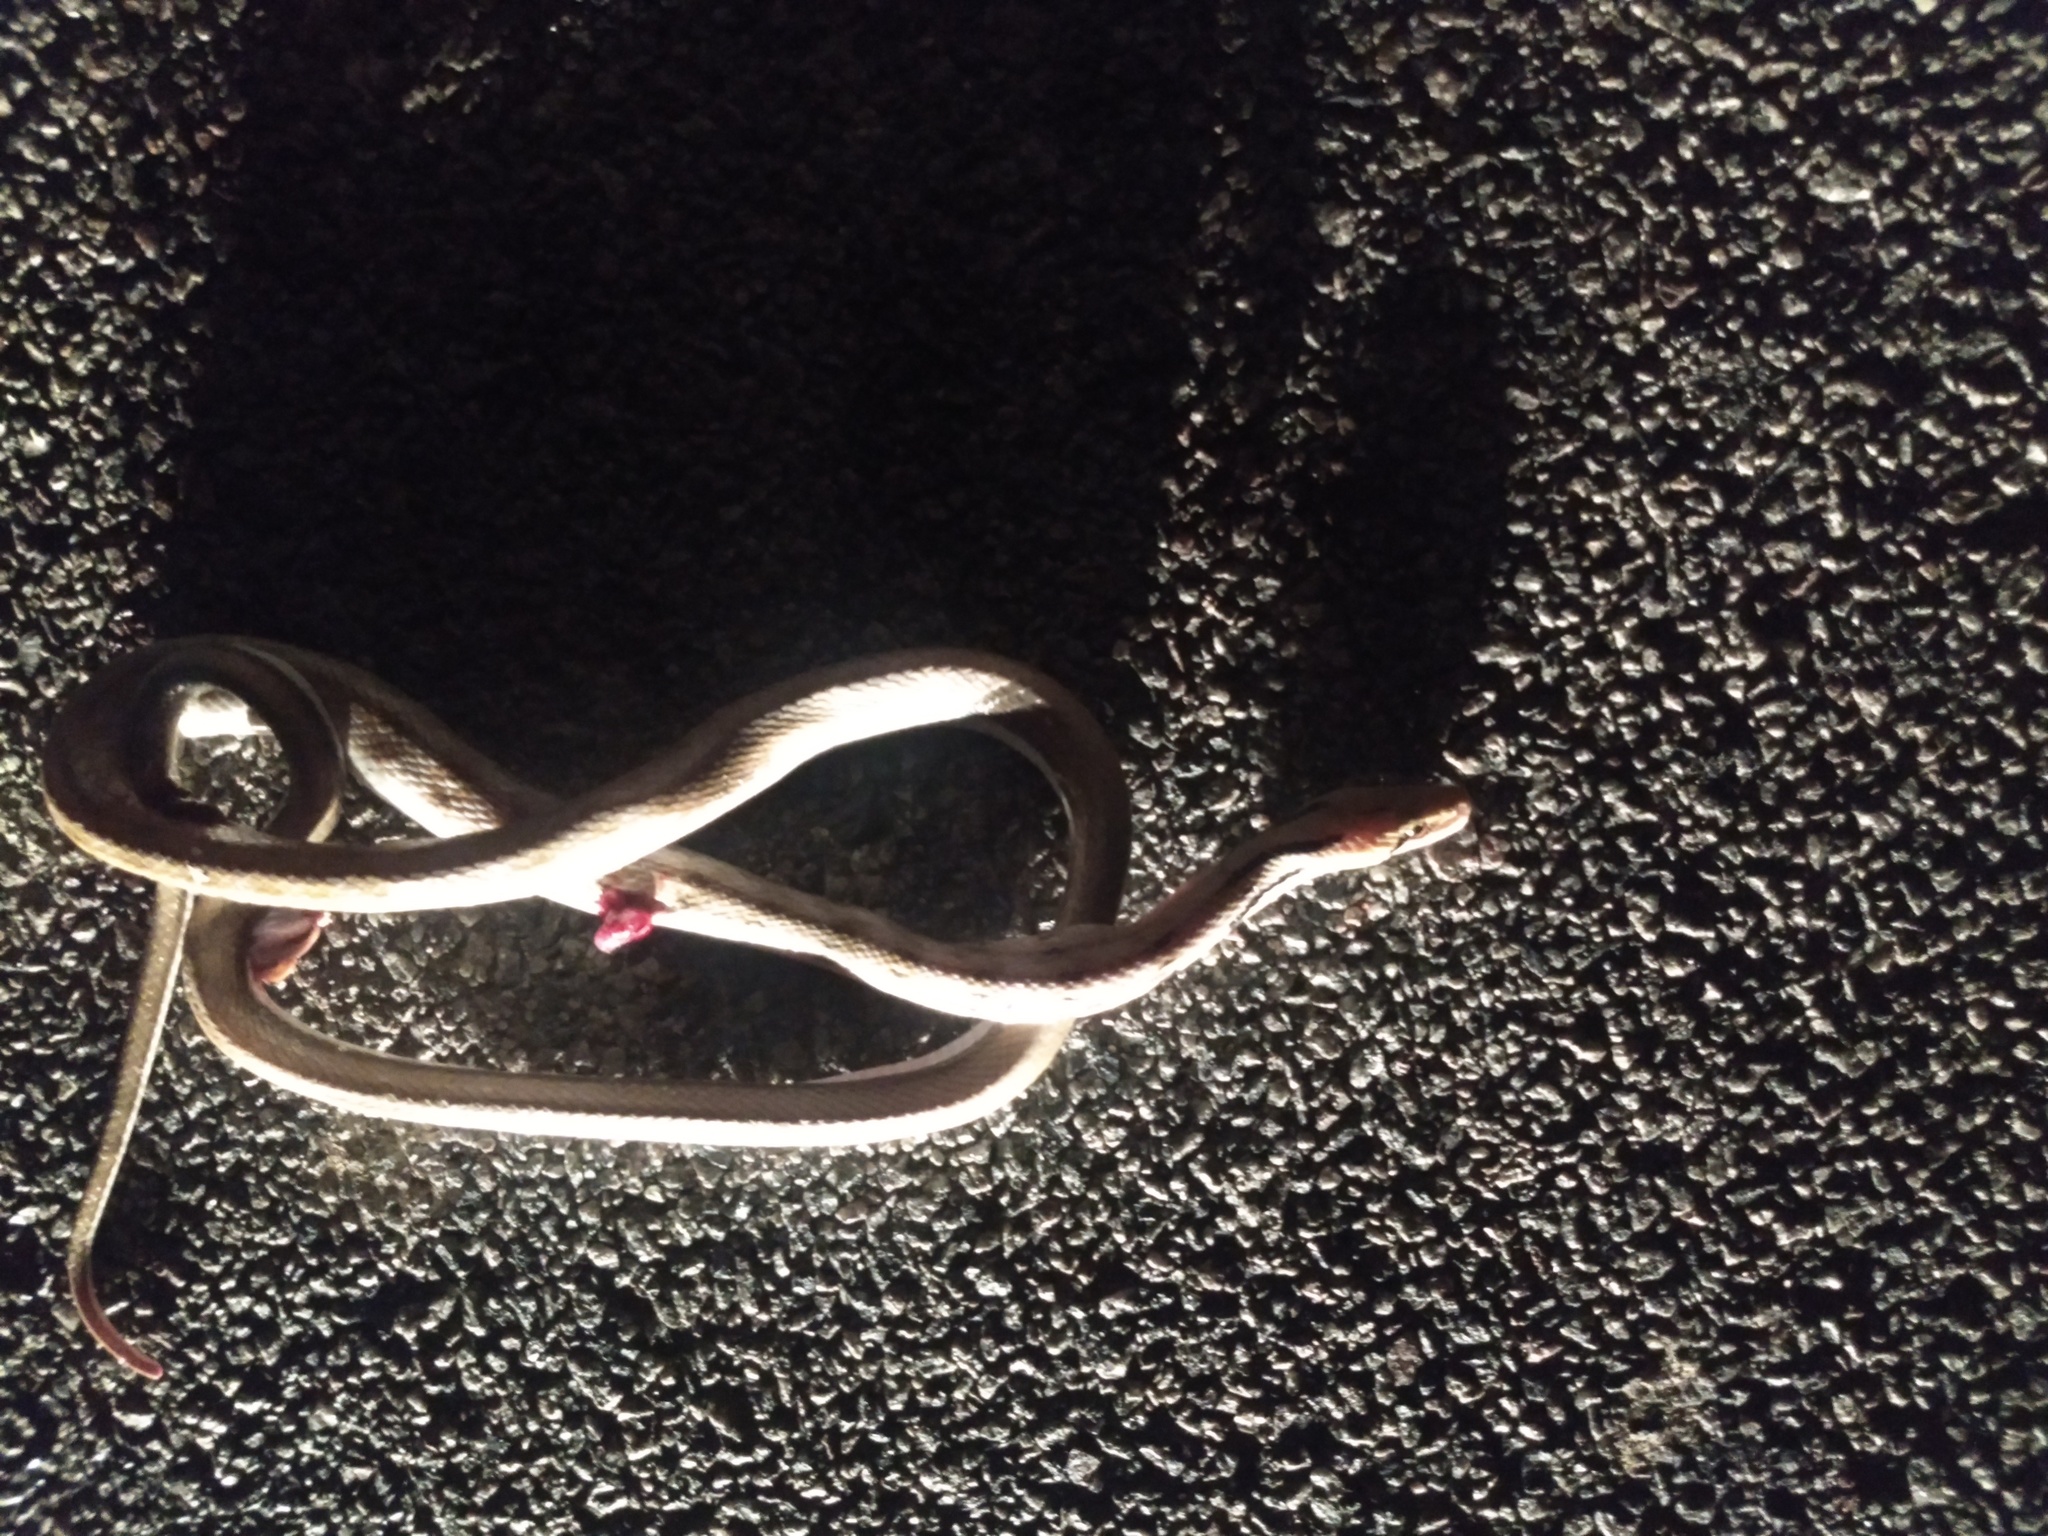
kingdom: Animalia
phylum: Chordata
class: Squamata
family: Colubridae
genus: Coelognathus
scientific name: Coelognathus helena
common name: Trinket snake
